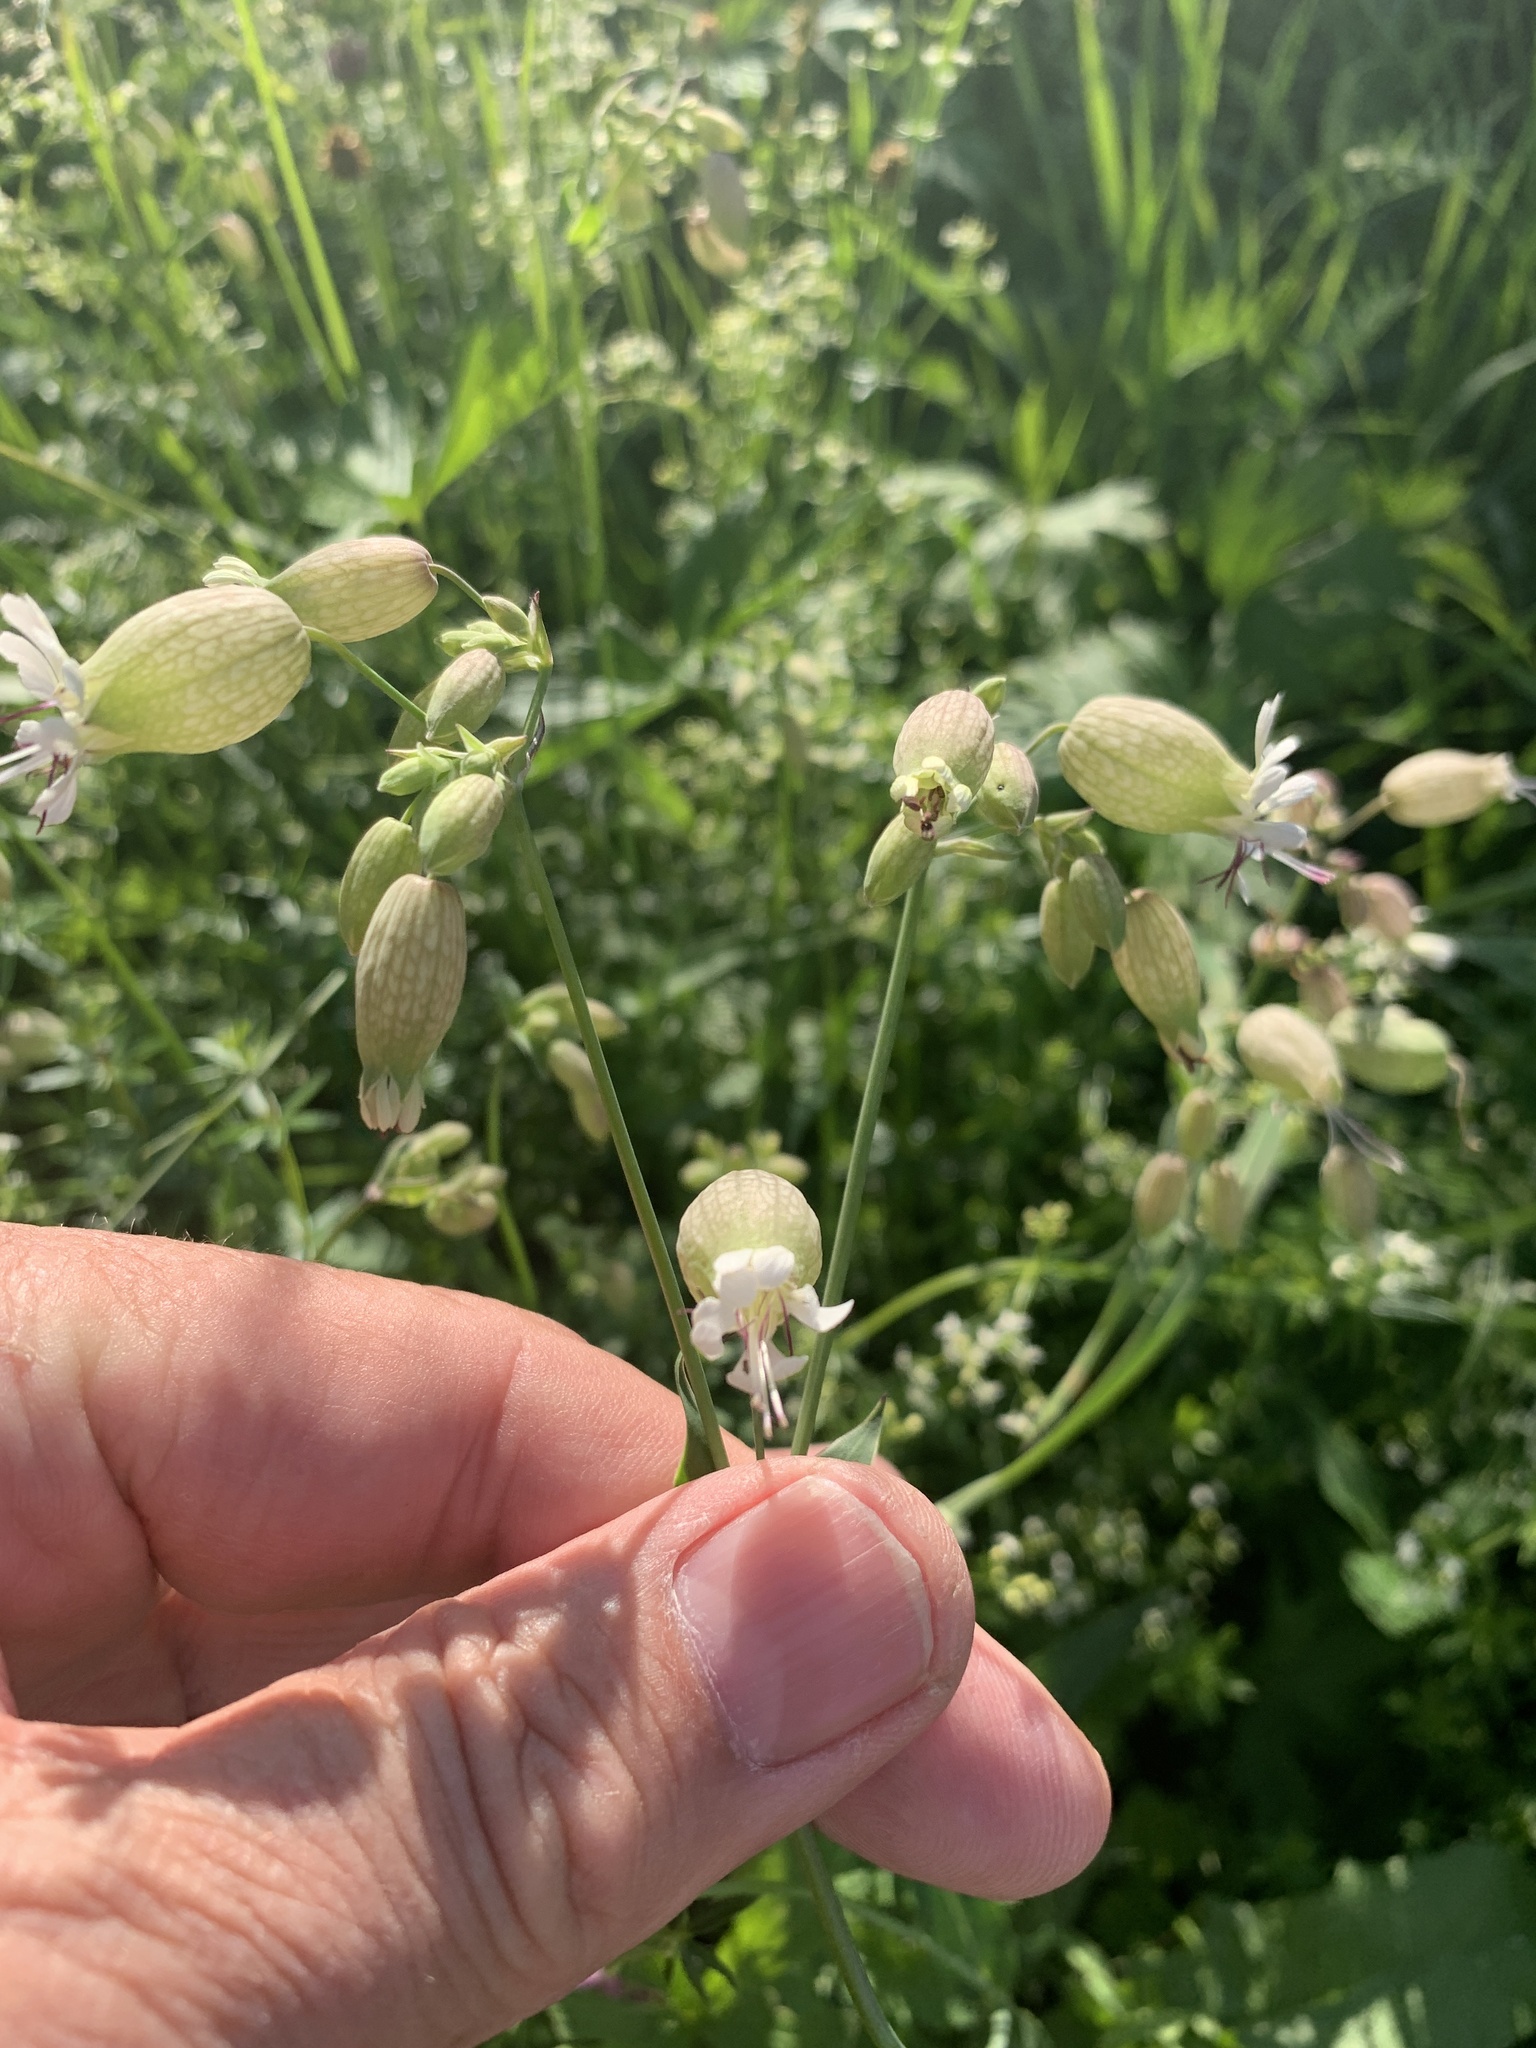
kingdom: Plantae
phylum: Tracheophyta
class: Magnoliopsida
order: Caryophyllales
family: Caryophyllaceae
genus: Silene
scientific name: Silene vulgaris
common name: Bladder campion
